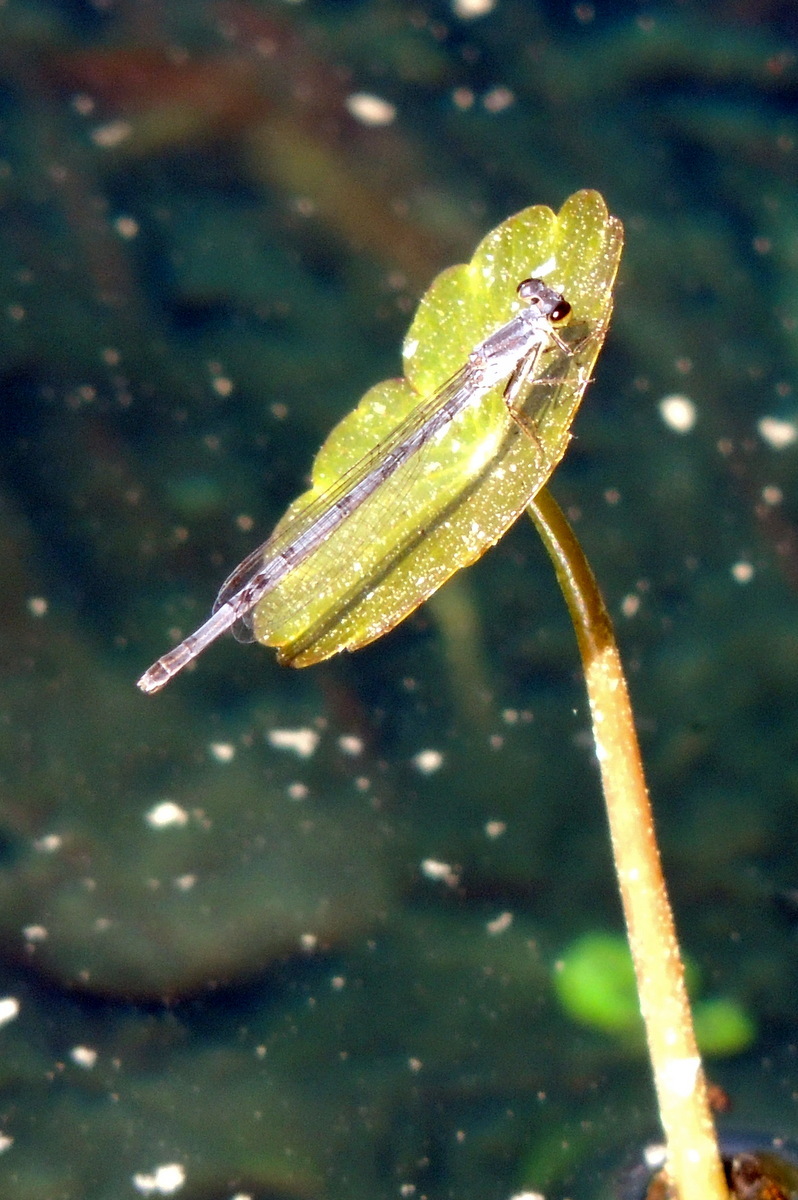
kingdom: Animalia
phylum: Arthropoda
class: Insecta
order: Odonata
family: Coenagrionidae
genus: Ischnura
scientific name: Ischnura posita
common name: Fragile forktail
